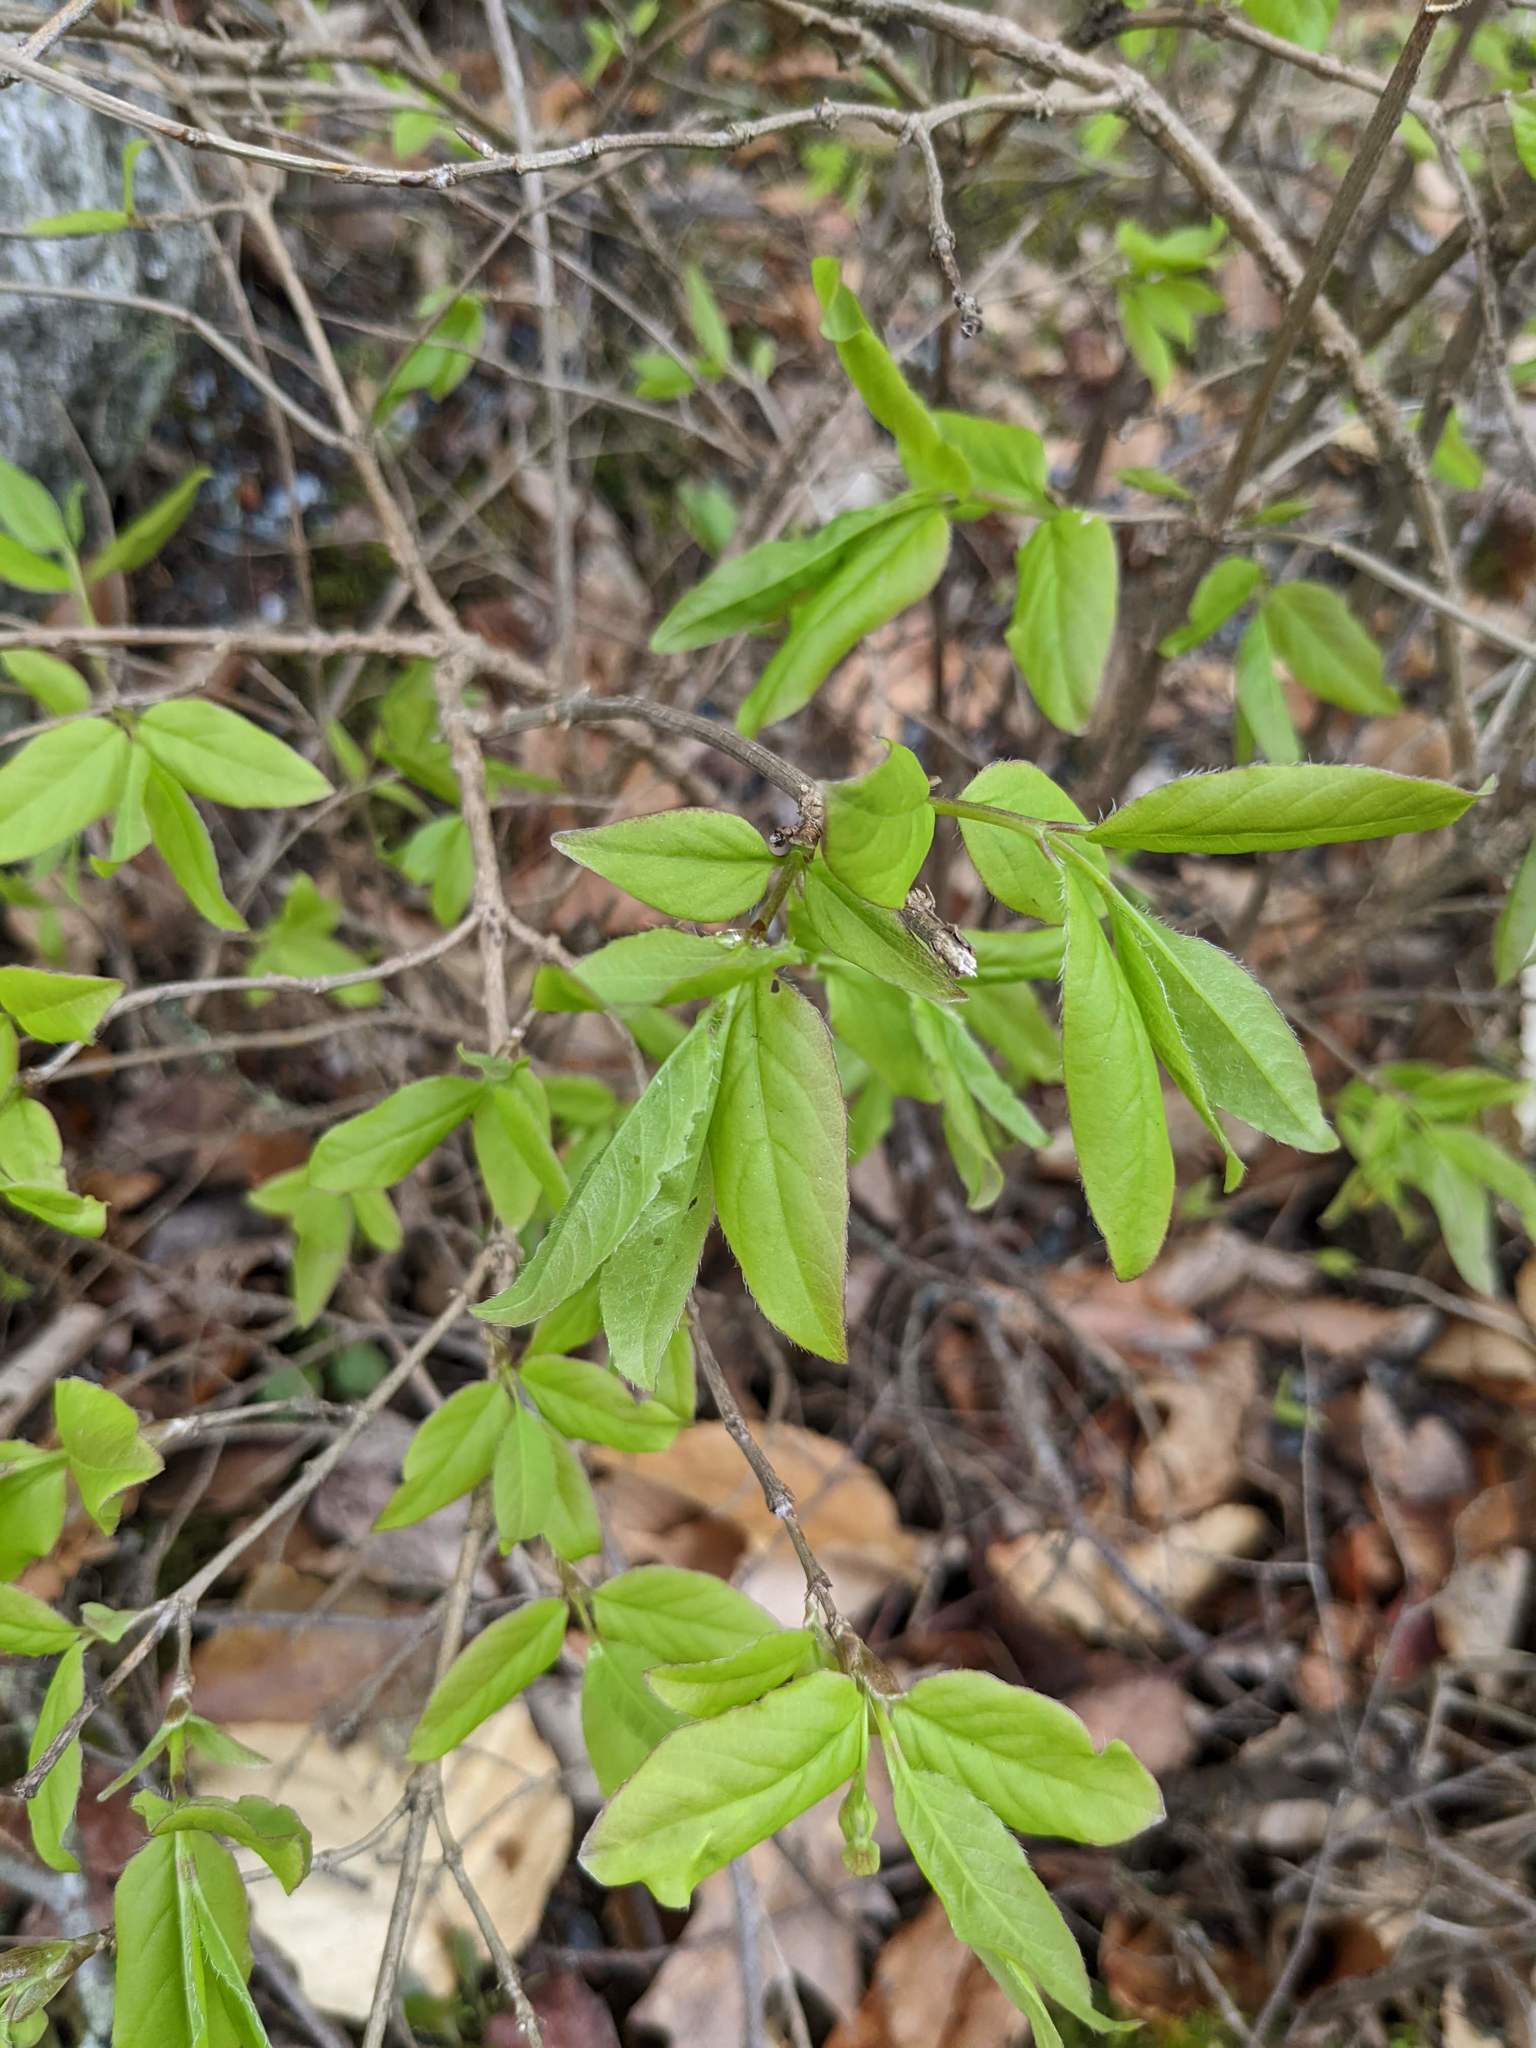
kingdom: Plantae
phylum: Tracheophyta
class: Magnoliopsida
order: Dipsacales
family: Caprifoliaceae
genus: Lonicera
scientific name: Lonicera canadensis
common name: American fly-honeysuckle
